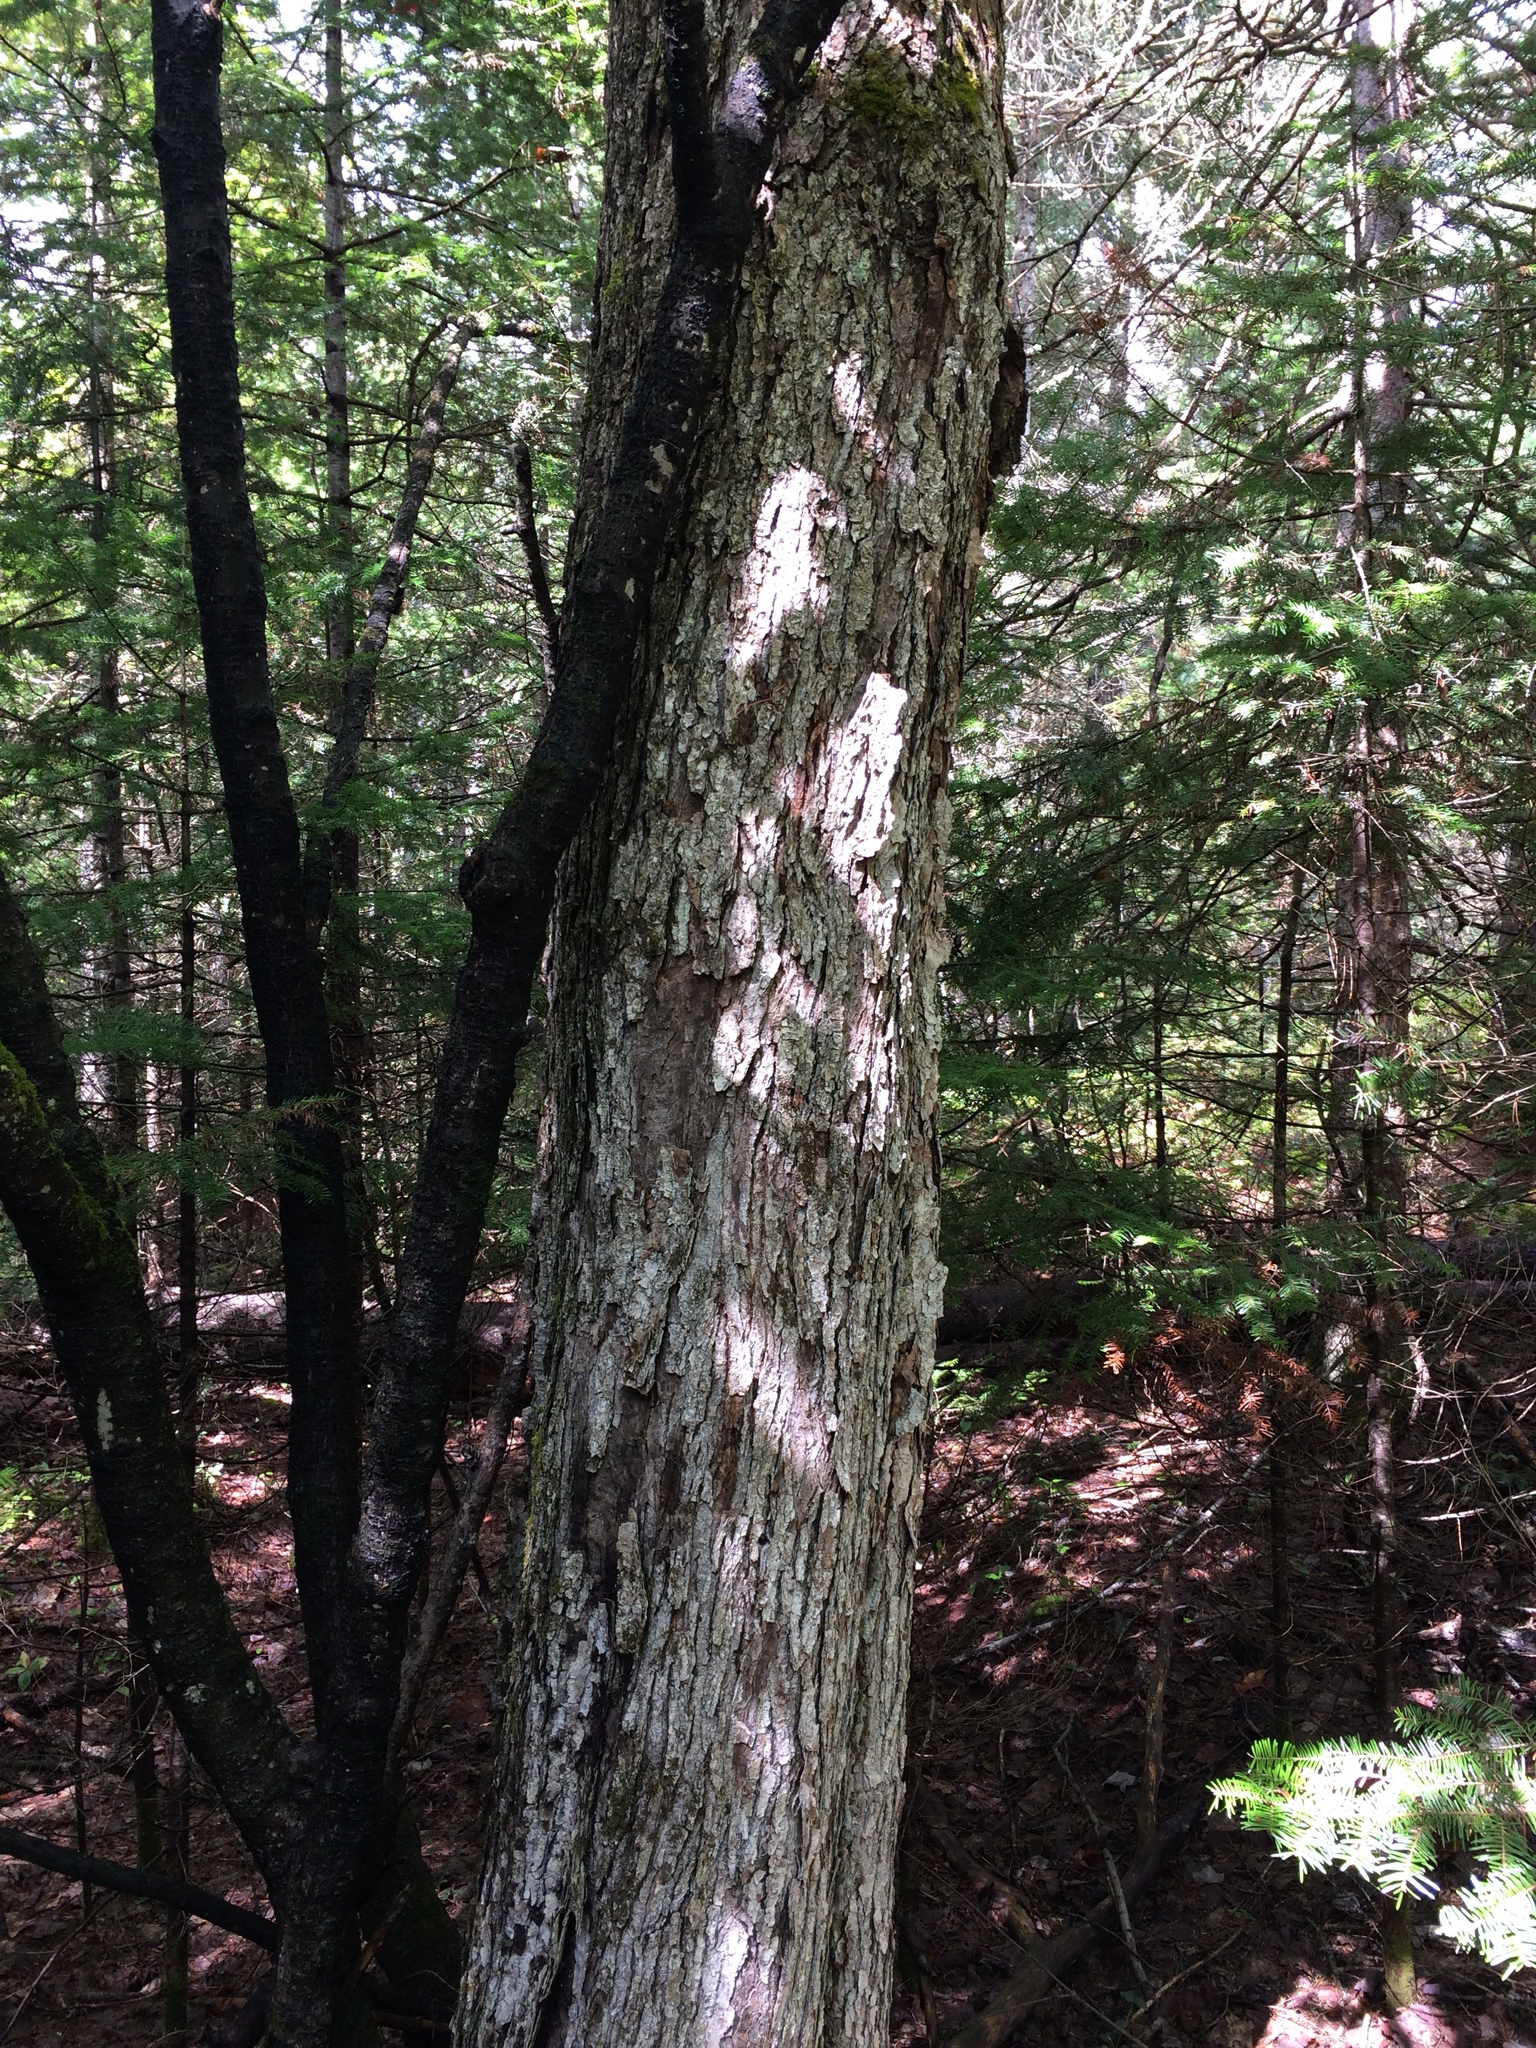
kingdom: Plantae
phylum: Tracheophyta
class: Magnoliopsida
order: Sapindales
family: Sapindaceae
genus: Acer
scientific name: Acer rubrum
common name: Red maple
